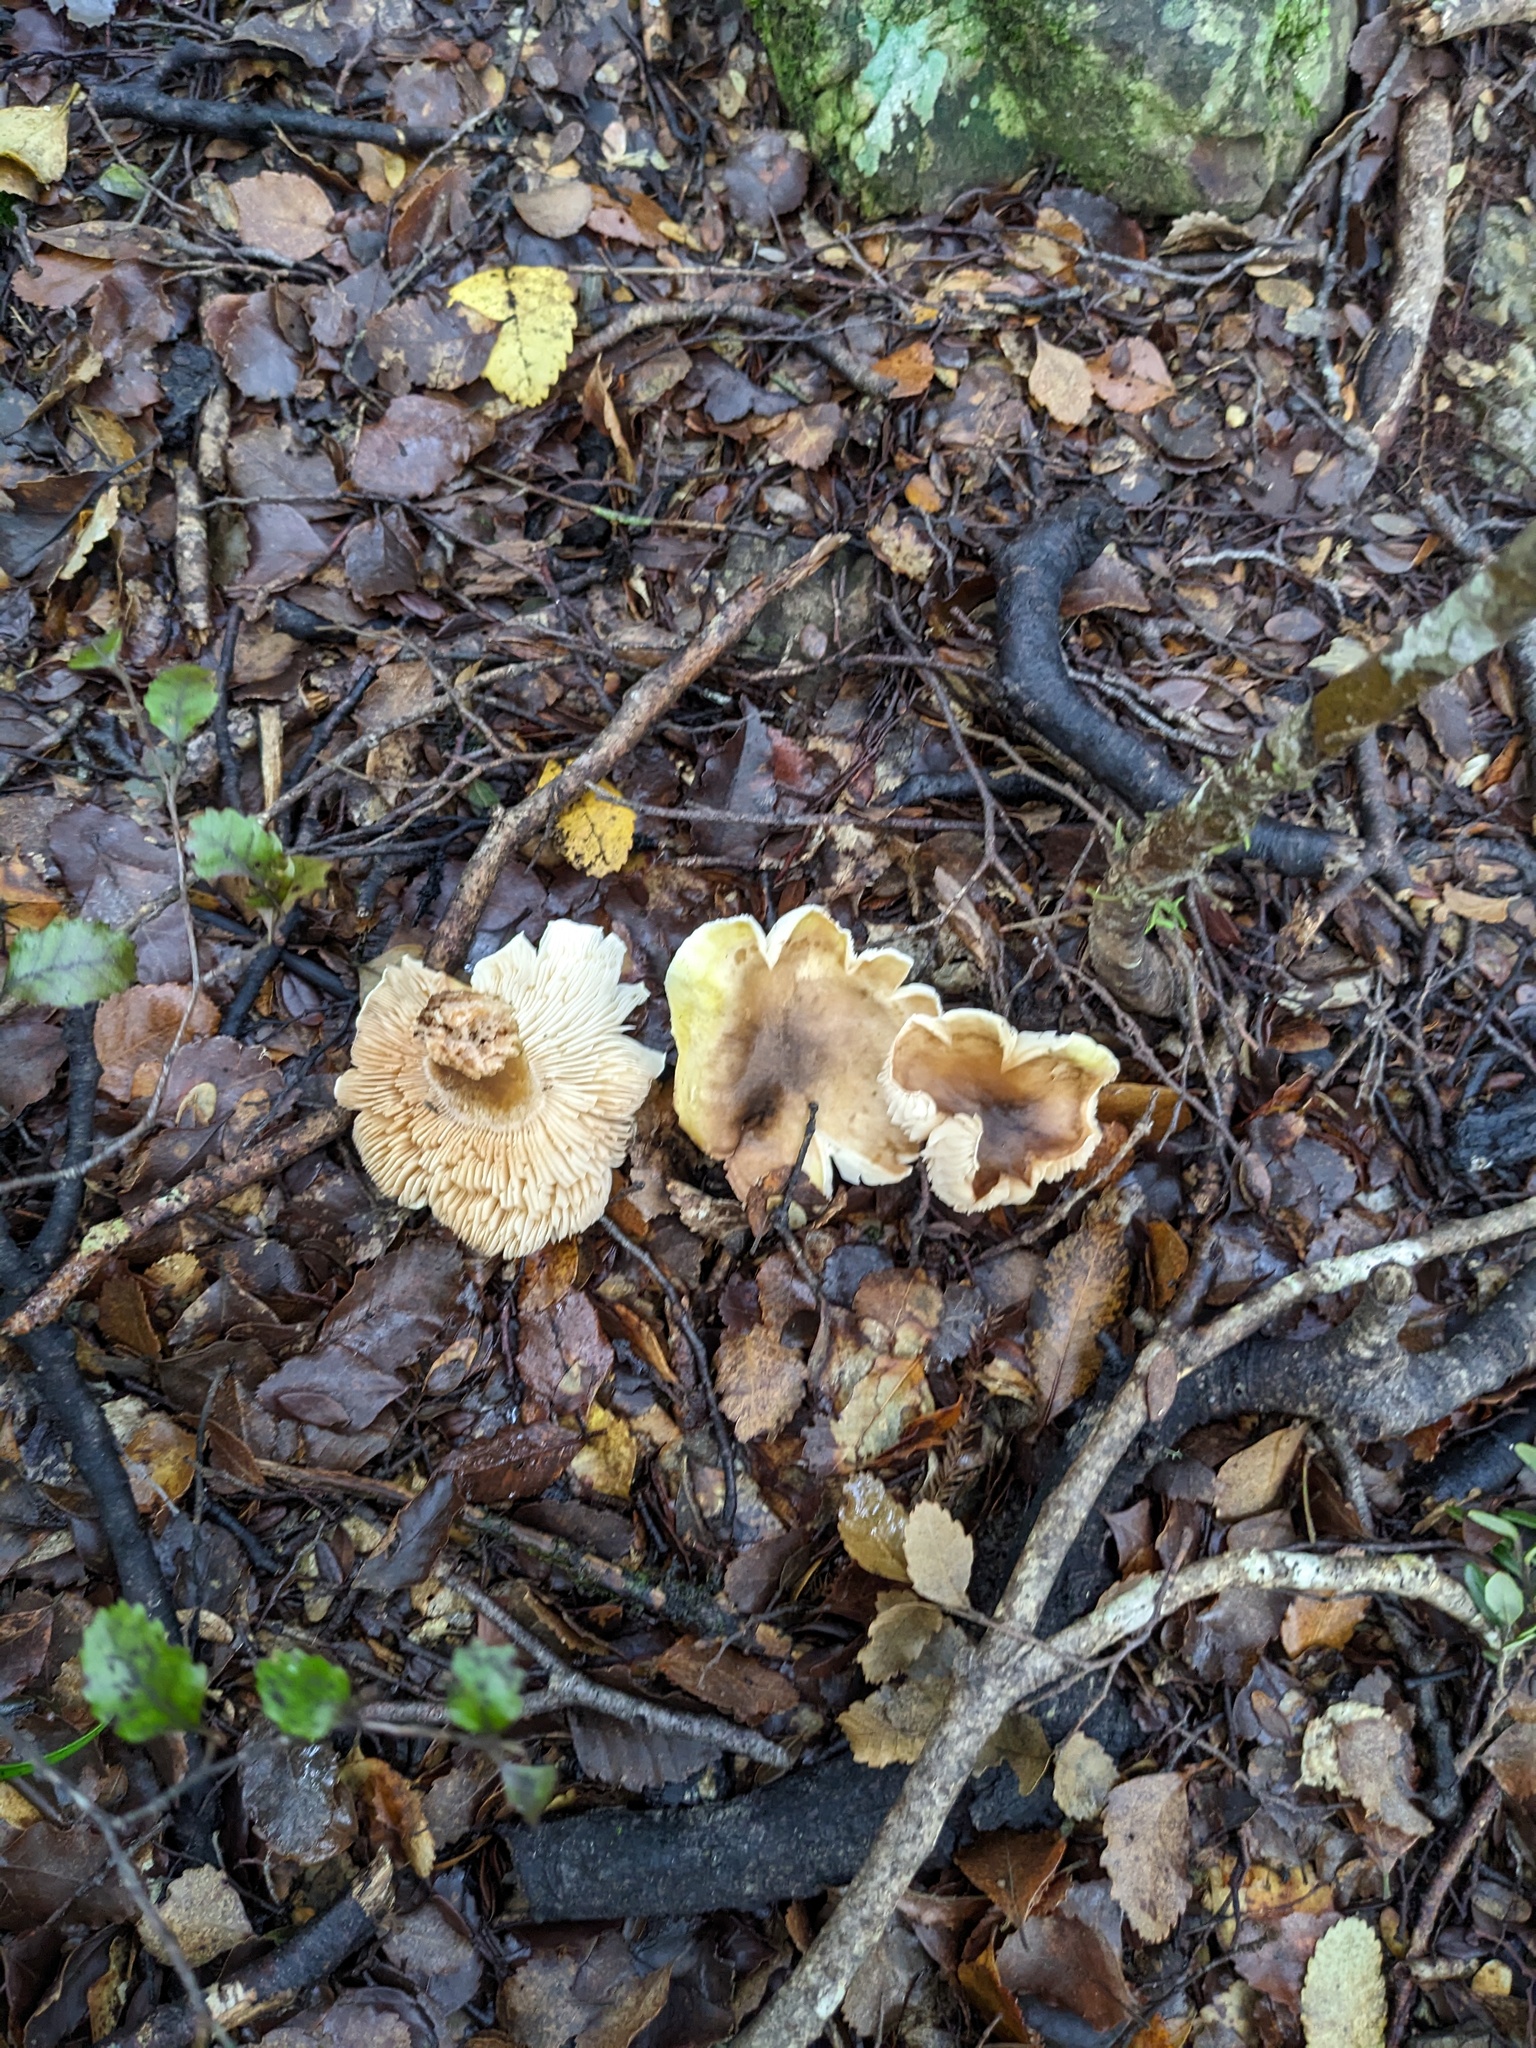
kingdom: Fungi
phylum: Basidiomycota
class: Agaricomycetes
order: Agaricales
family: Tricholomataceae
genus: Tricholoma
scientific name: Tricholoma viridiolivaceum
